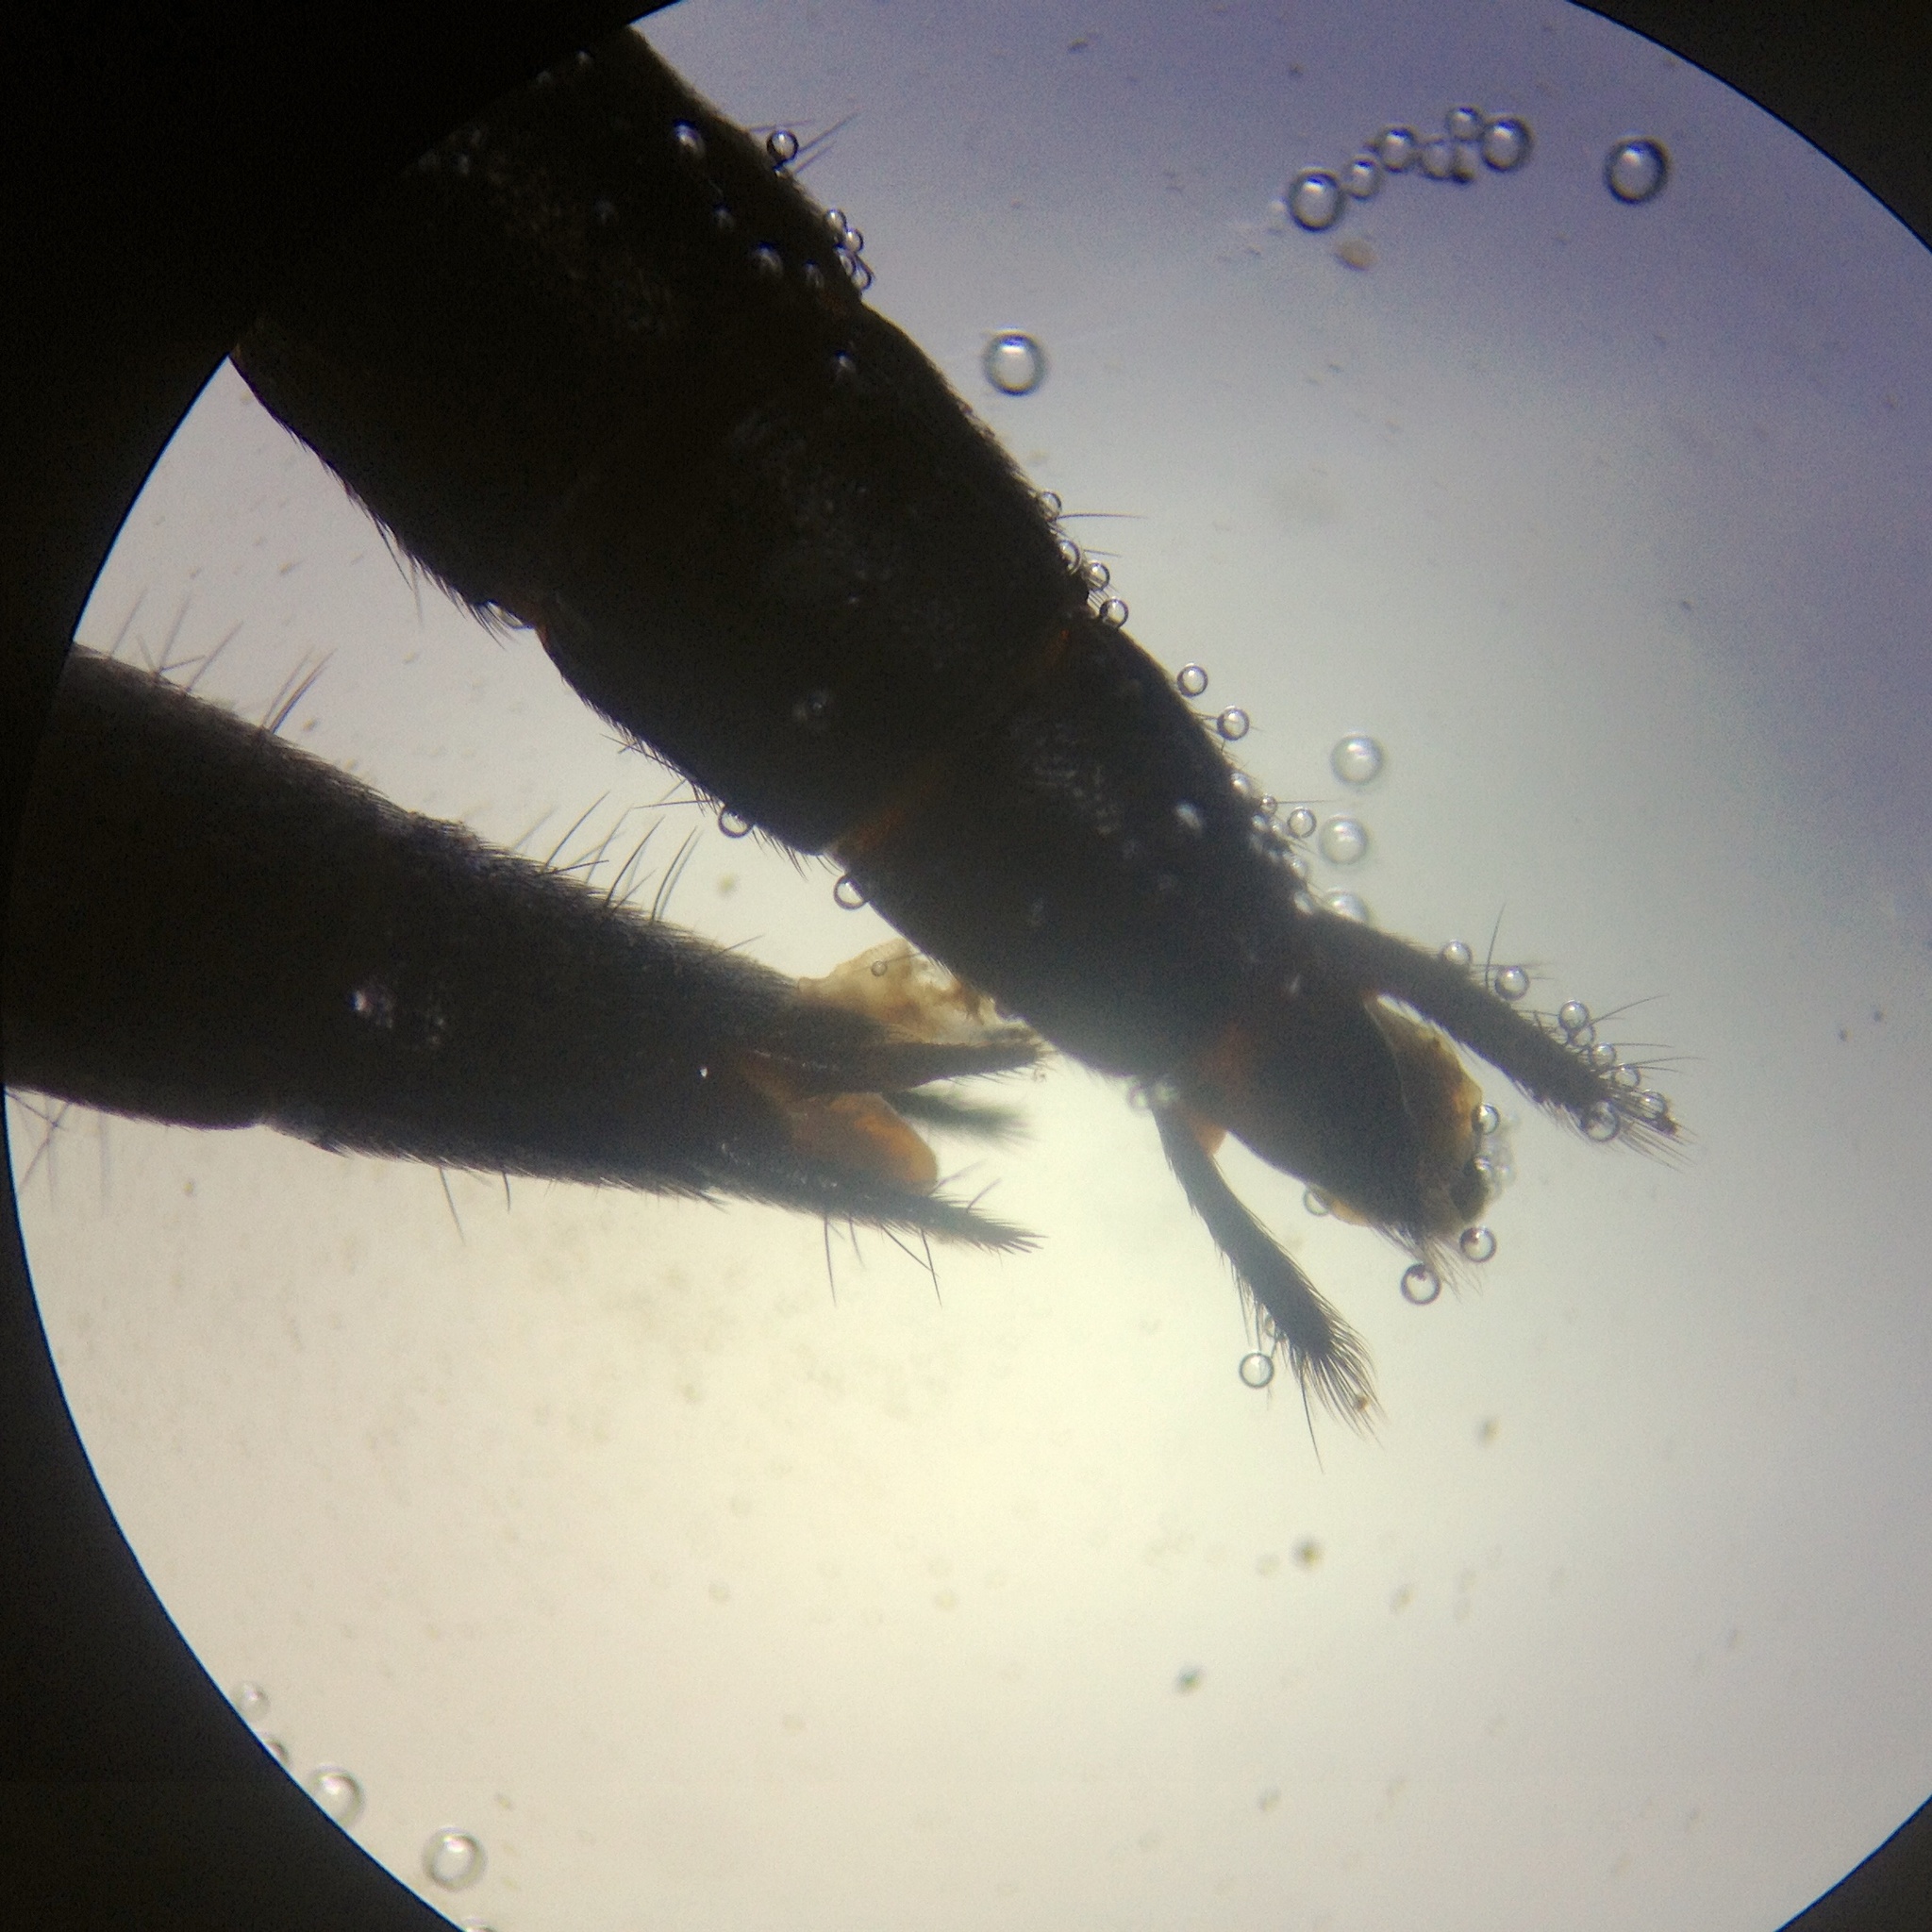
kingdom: Animalia
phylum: Arthropoda
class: Insecta
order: Coleoptera
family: Staphylinidae
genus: Tasgius
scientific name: Tasgius ater
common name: Staph beetle
